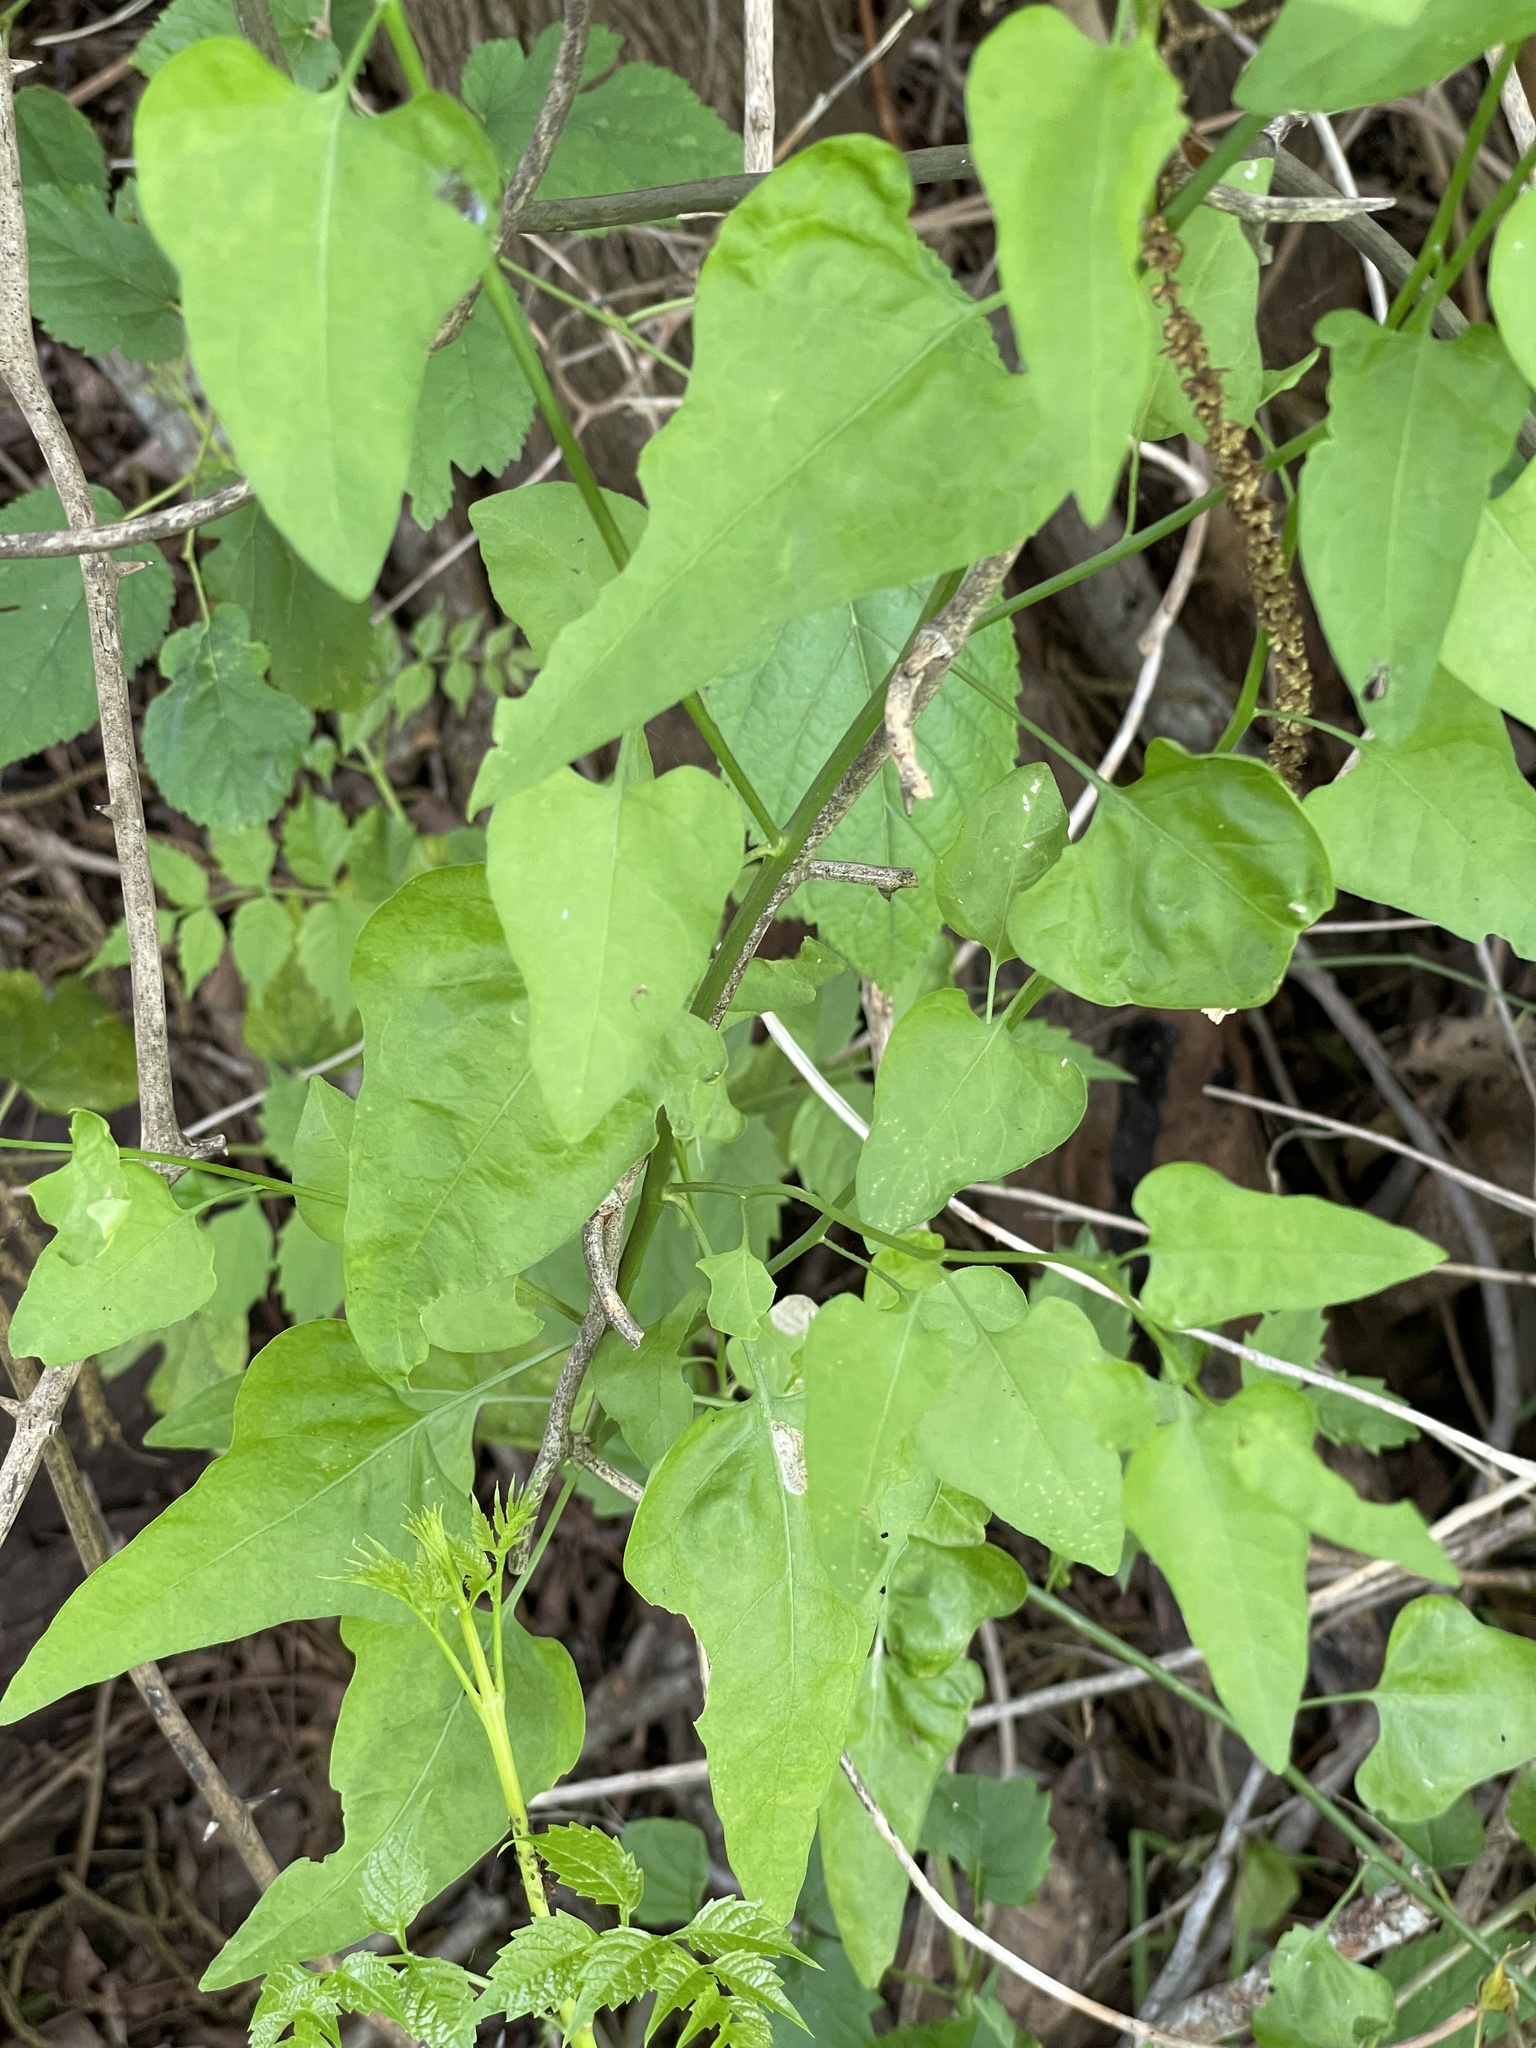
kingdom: Plantae
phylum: Tracheophyta
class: Magnoliopsida
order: Solanales
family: Solanaceae
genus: Solanum
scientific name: Solanum triquetrum
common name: Texas nightshade
